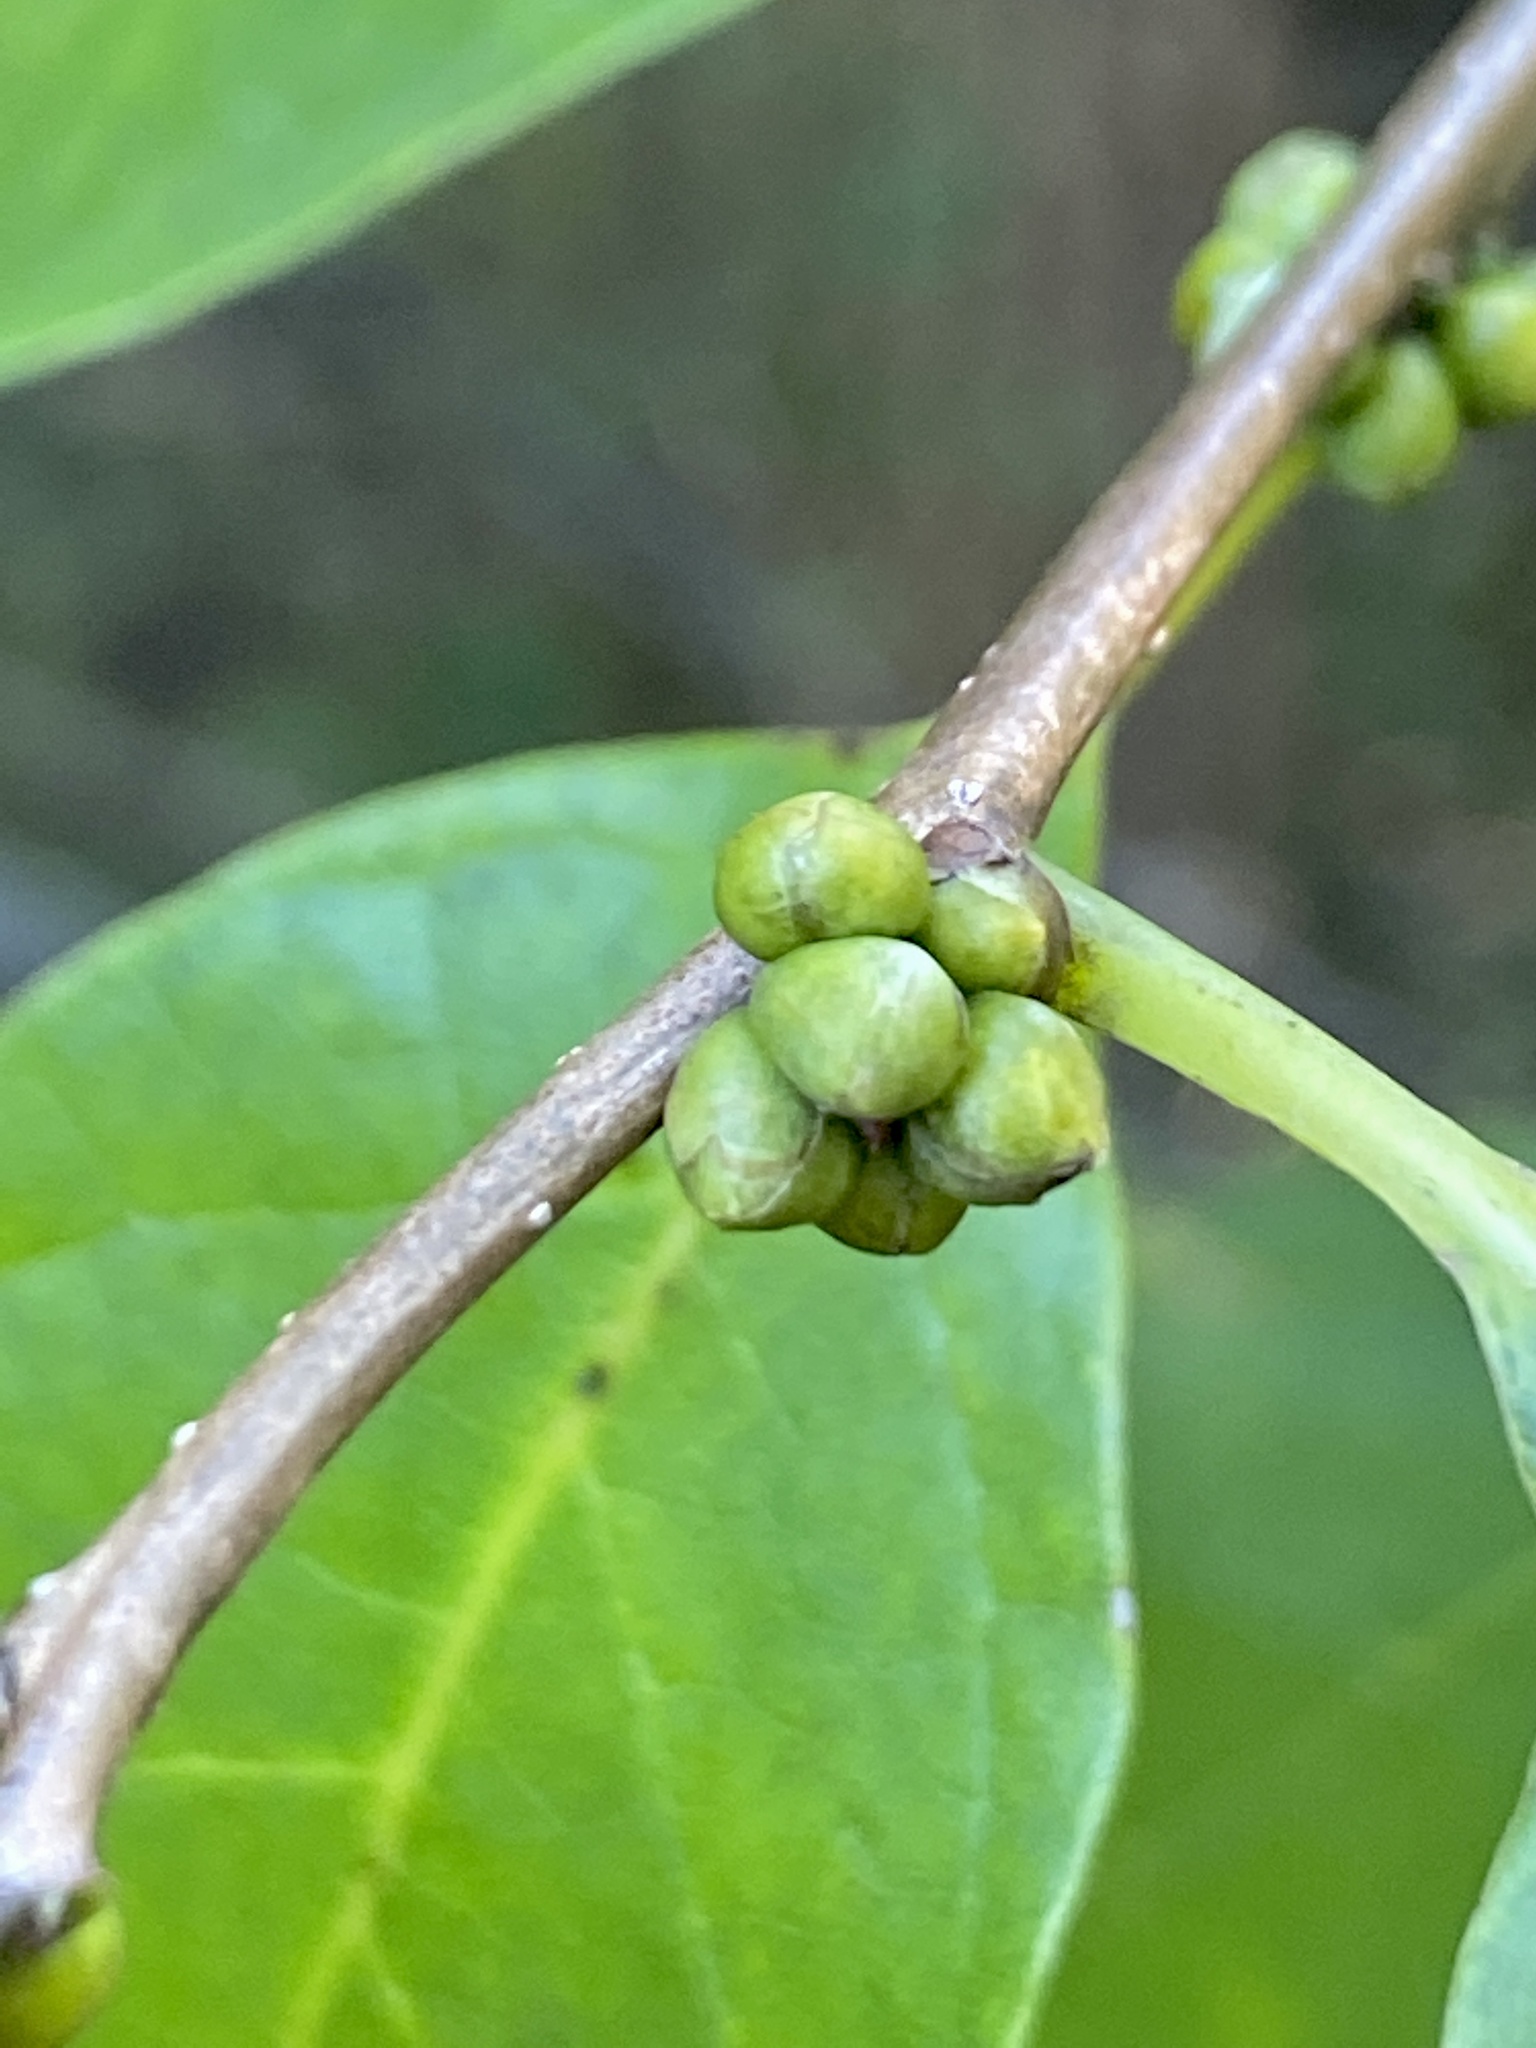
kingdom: Plantae
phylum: Tracheophyta
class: Magnoliopsida
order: Laurales
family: Lauraceae
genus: Lindera
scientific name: Lindera benzoin
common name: Spicebush
